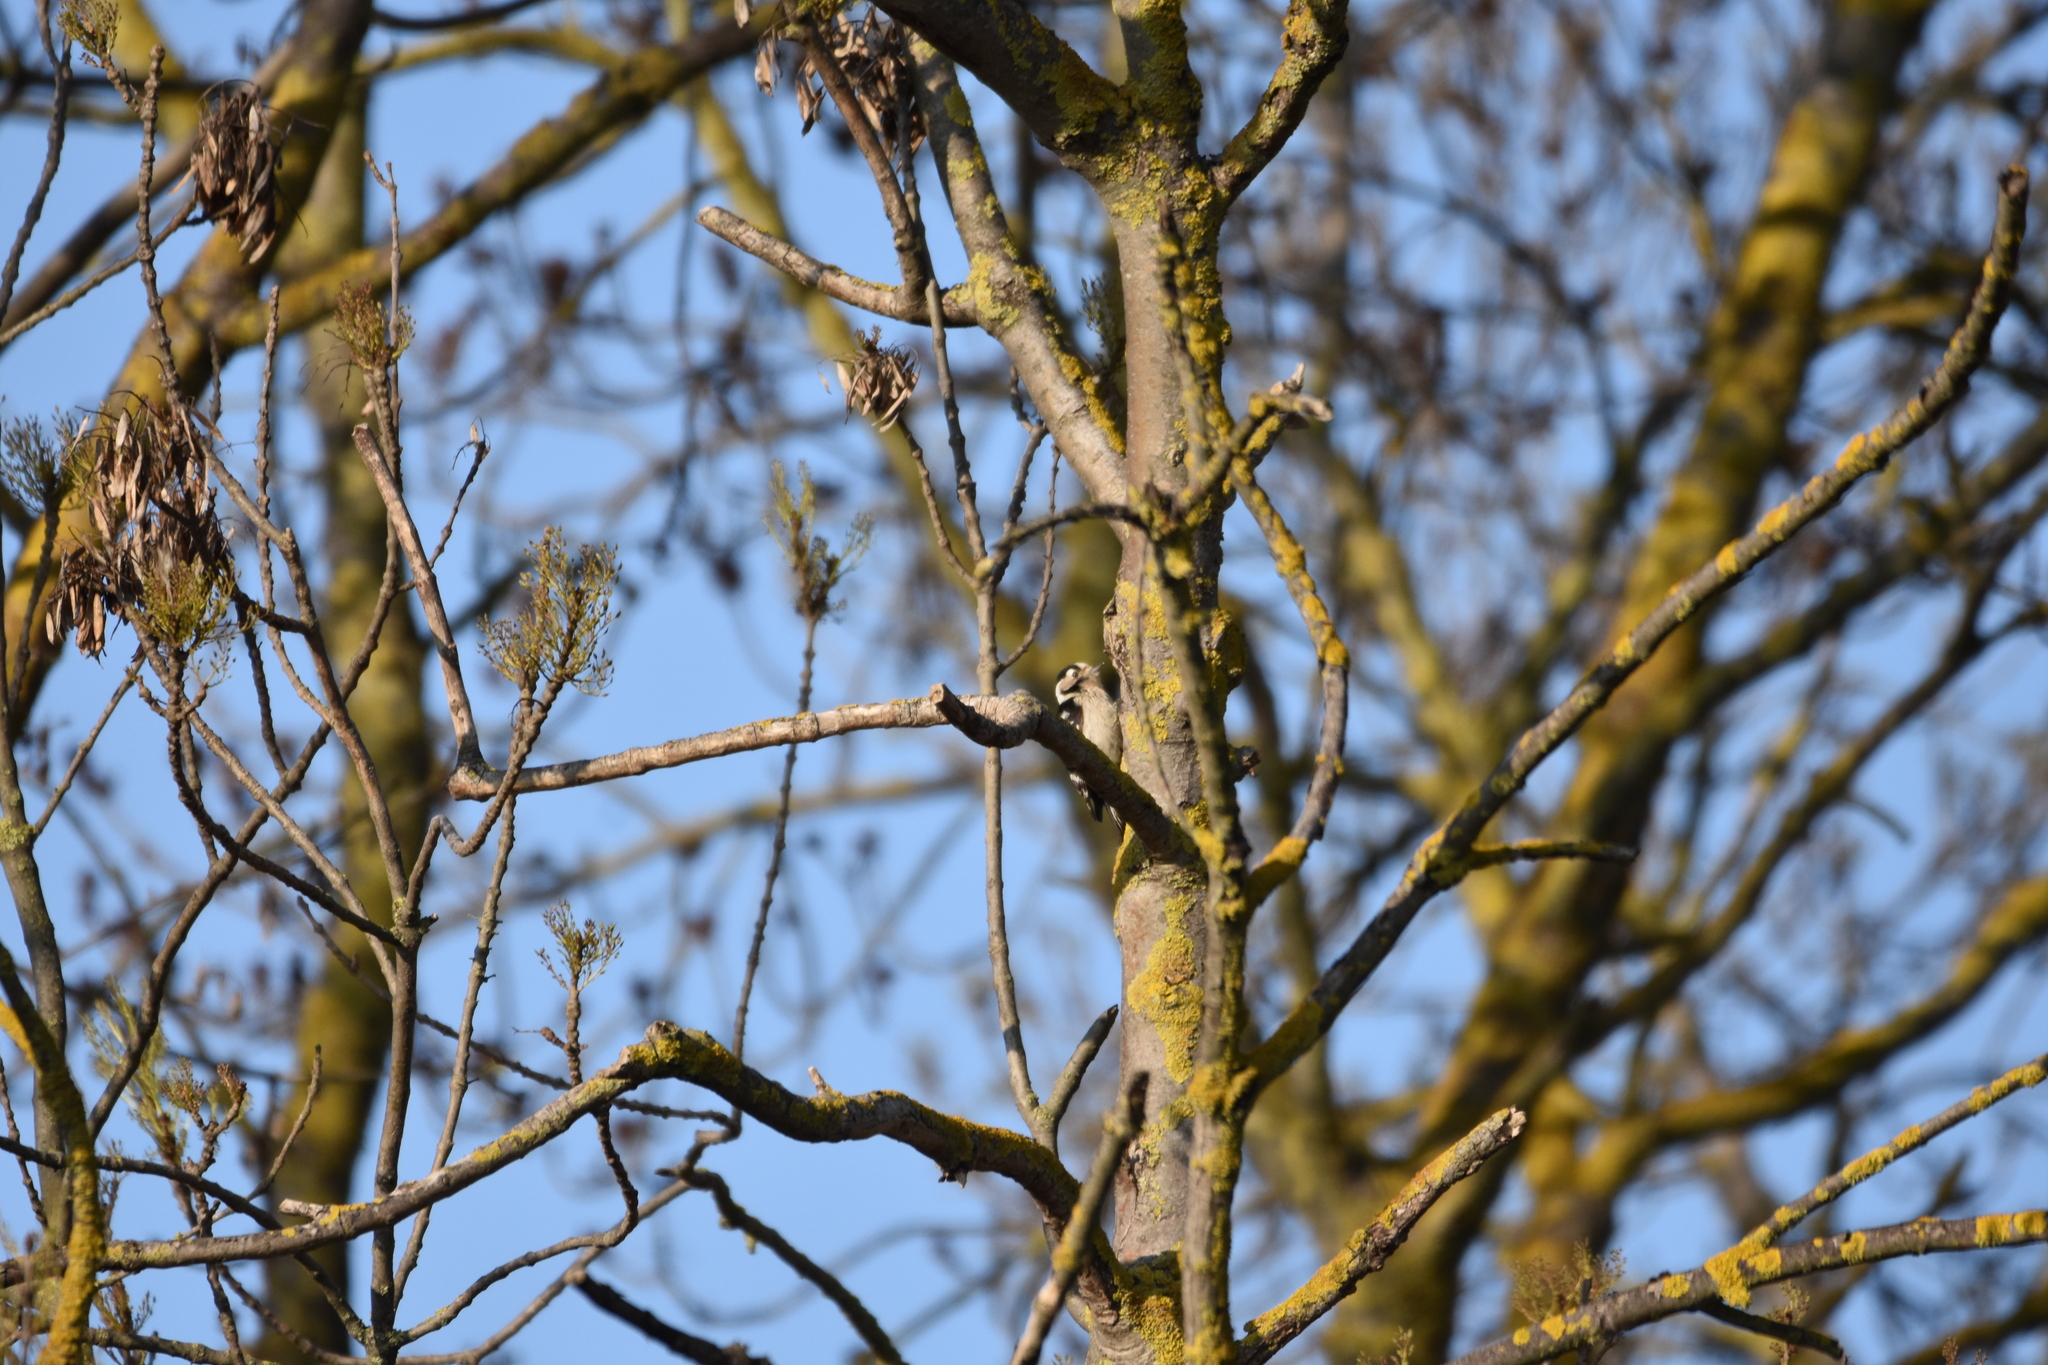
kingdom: Animalia
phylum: Chordata
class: Aves
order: Piciformes
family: Picidae
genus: Dryobates
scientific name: Dryobates minor
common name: Lesser spotted woodpecker
